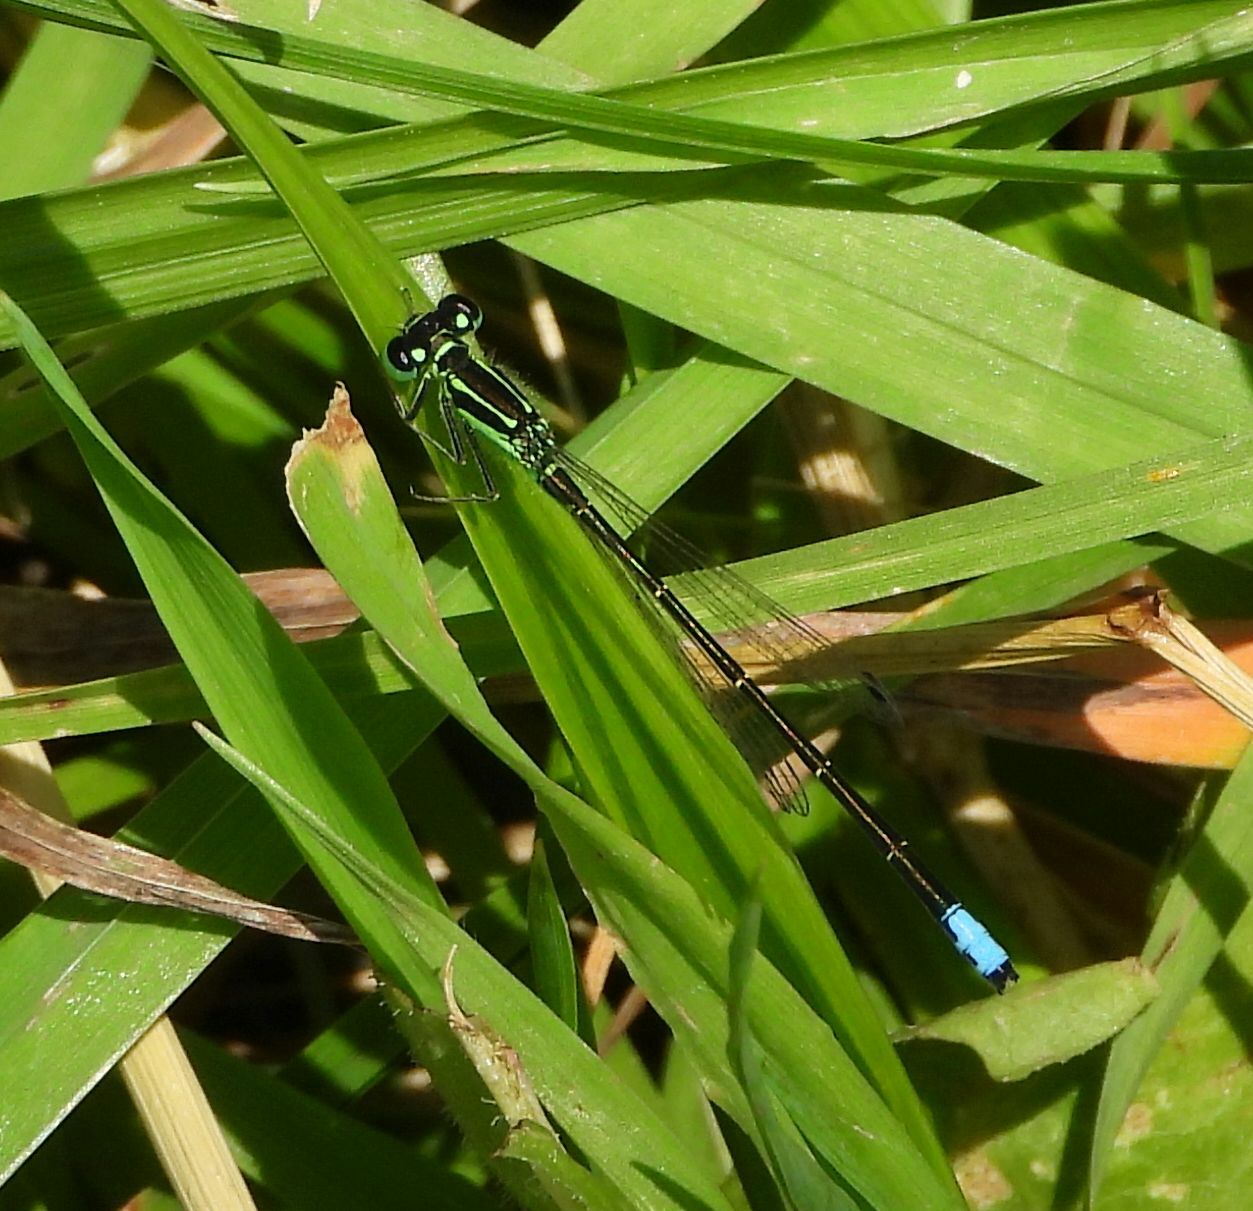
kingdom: Animalia
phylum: Arthropoda
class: Insecta
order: Odonata
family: Coenagrionidae
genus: Ischnura
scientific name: Ischnura verticalis
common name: Eastern forktail
